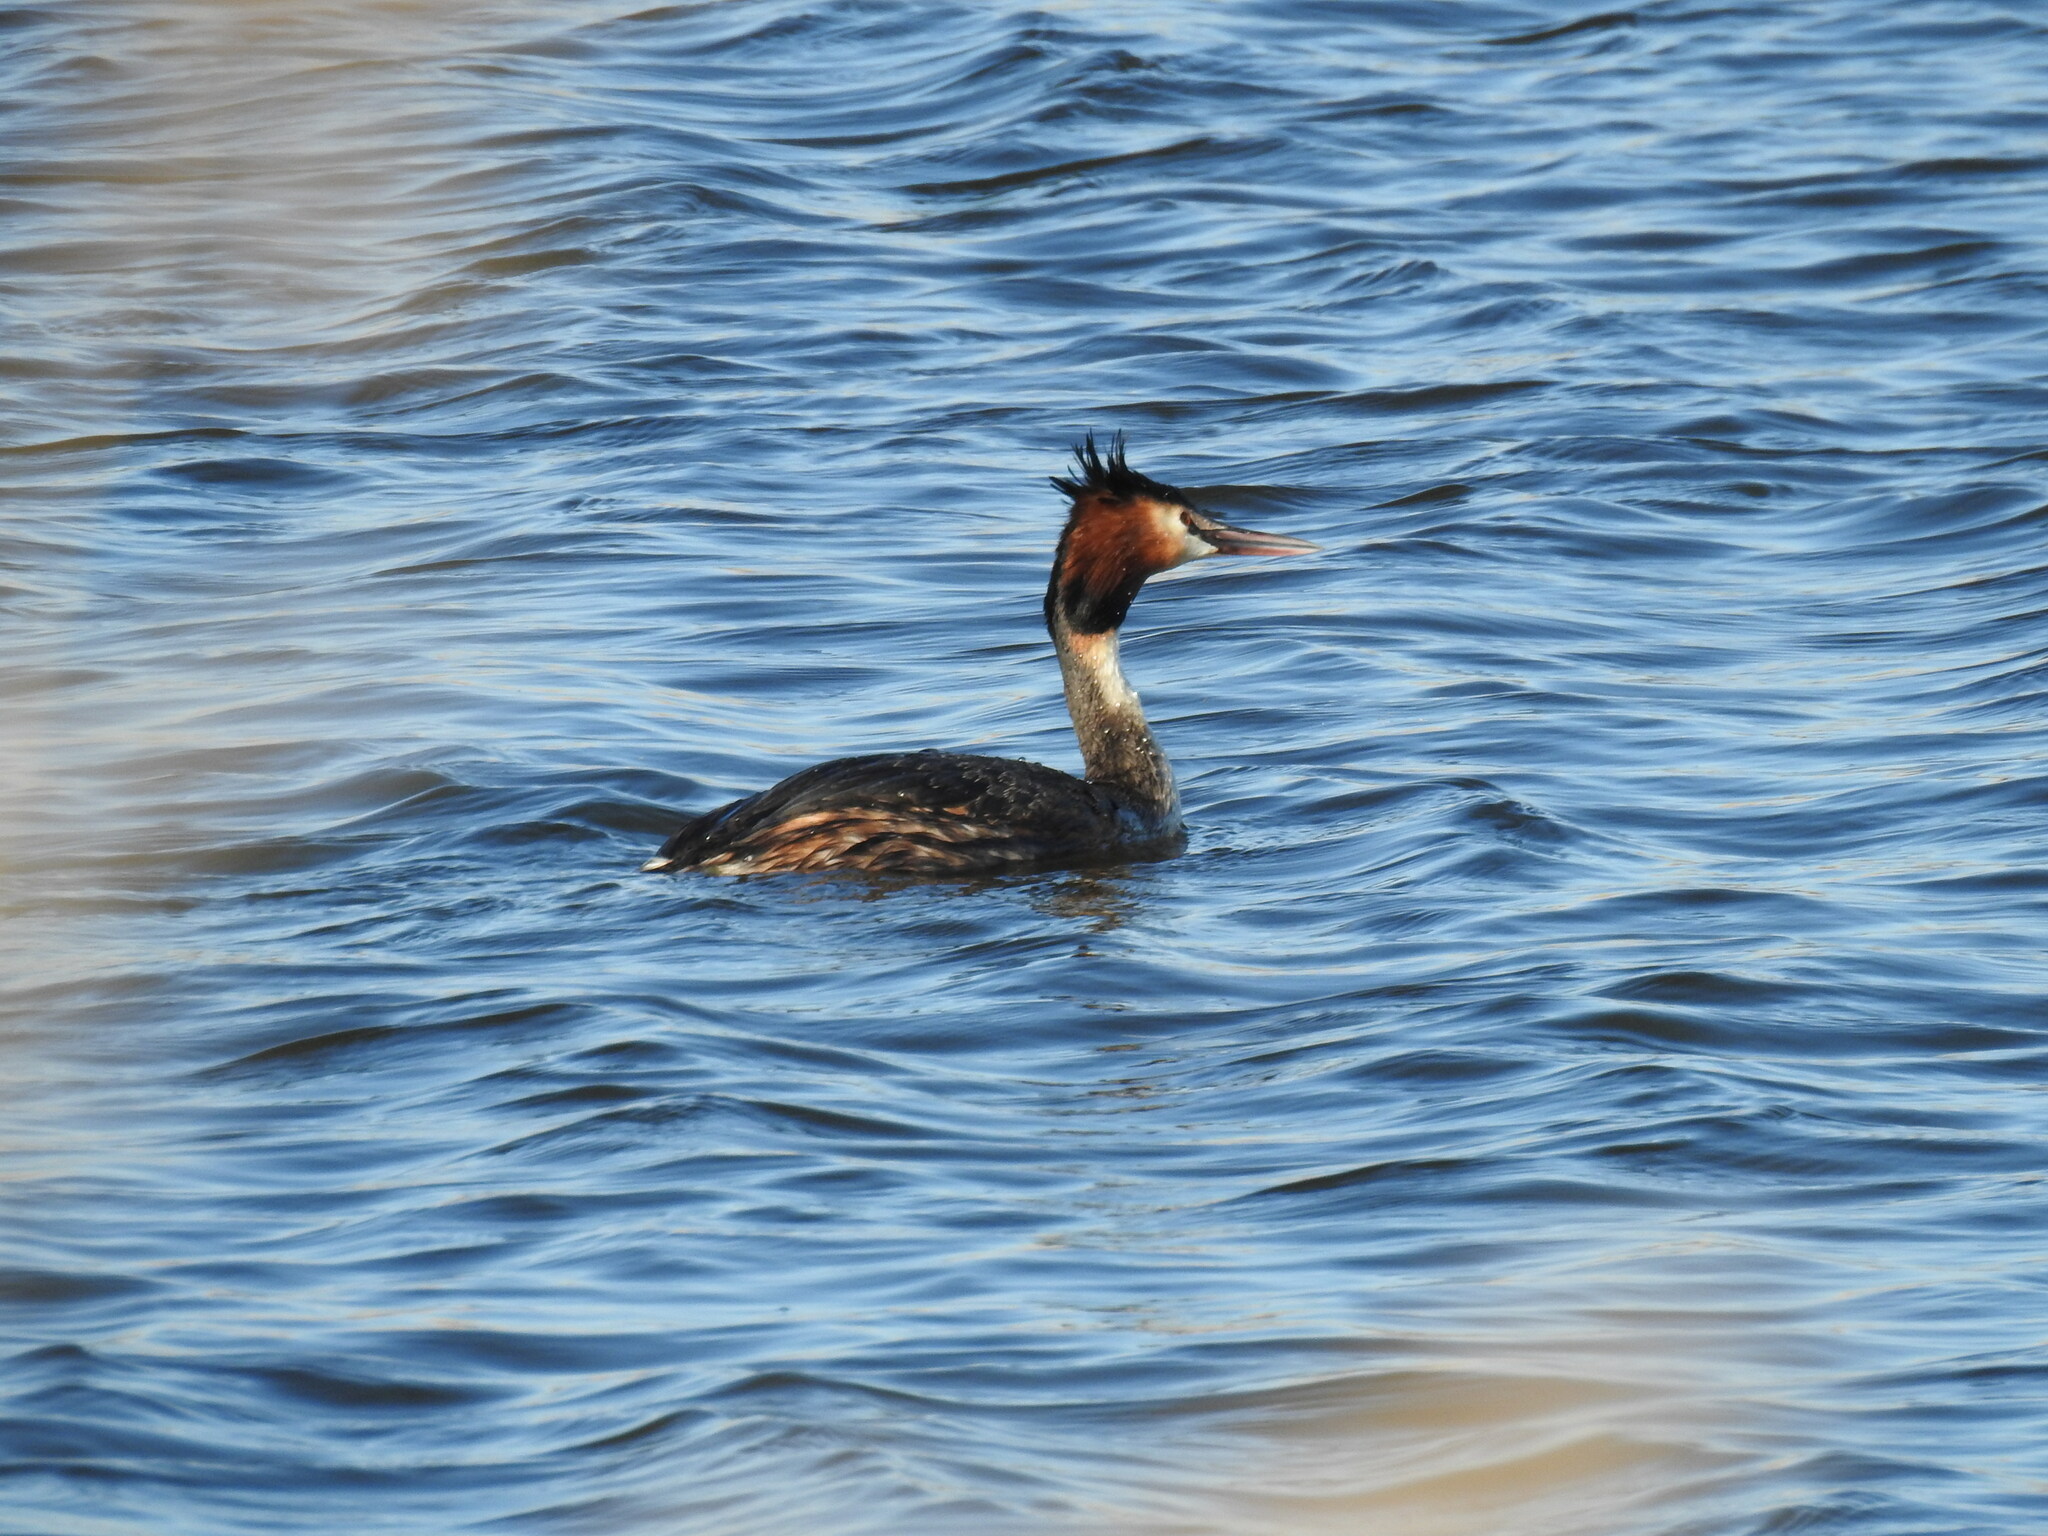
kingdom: Animalia
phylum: Chordata
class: Aves
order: Podicipediformes
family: Podicipedidae
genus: Podiceps
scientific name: Podiceps cristatus
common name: Great crested grebe
